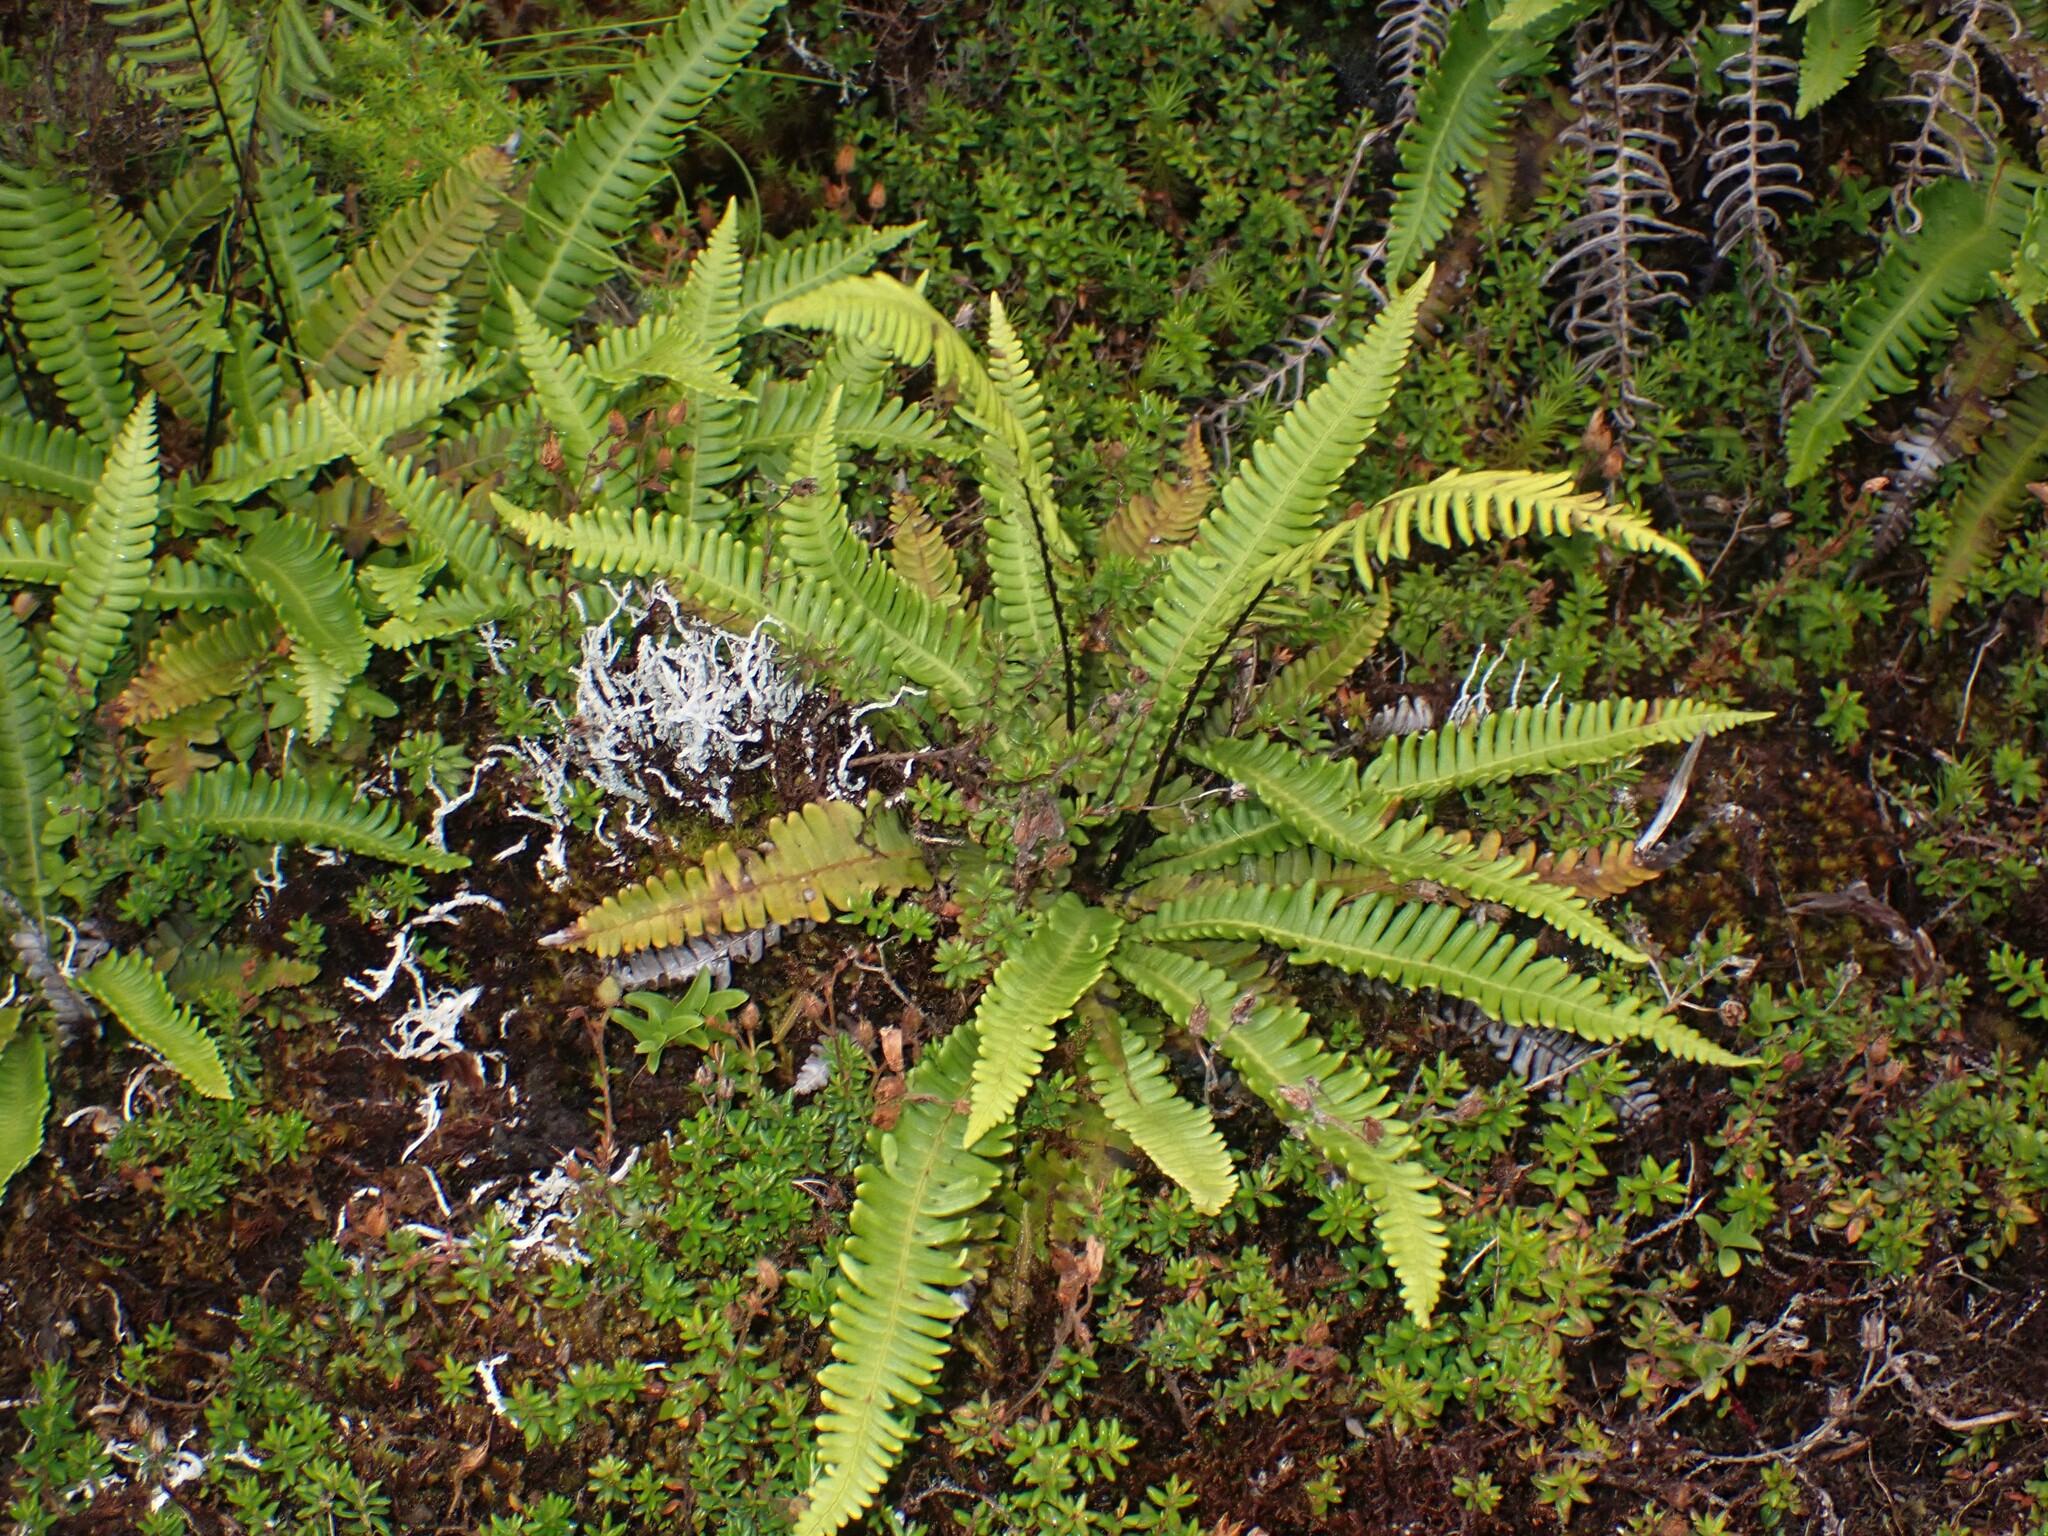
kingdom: Plantae
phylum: Tracheophyta
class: Polypodiopsida
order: Polypodiales
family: Blechnaceae
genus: Struthiopteris
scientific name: Struthiopteris spicant
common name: Deer fern
